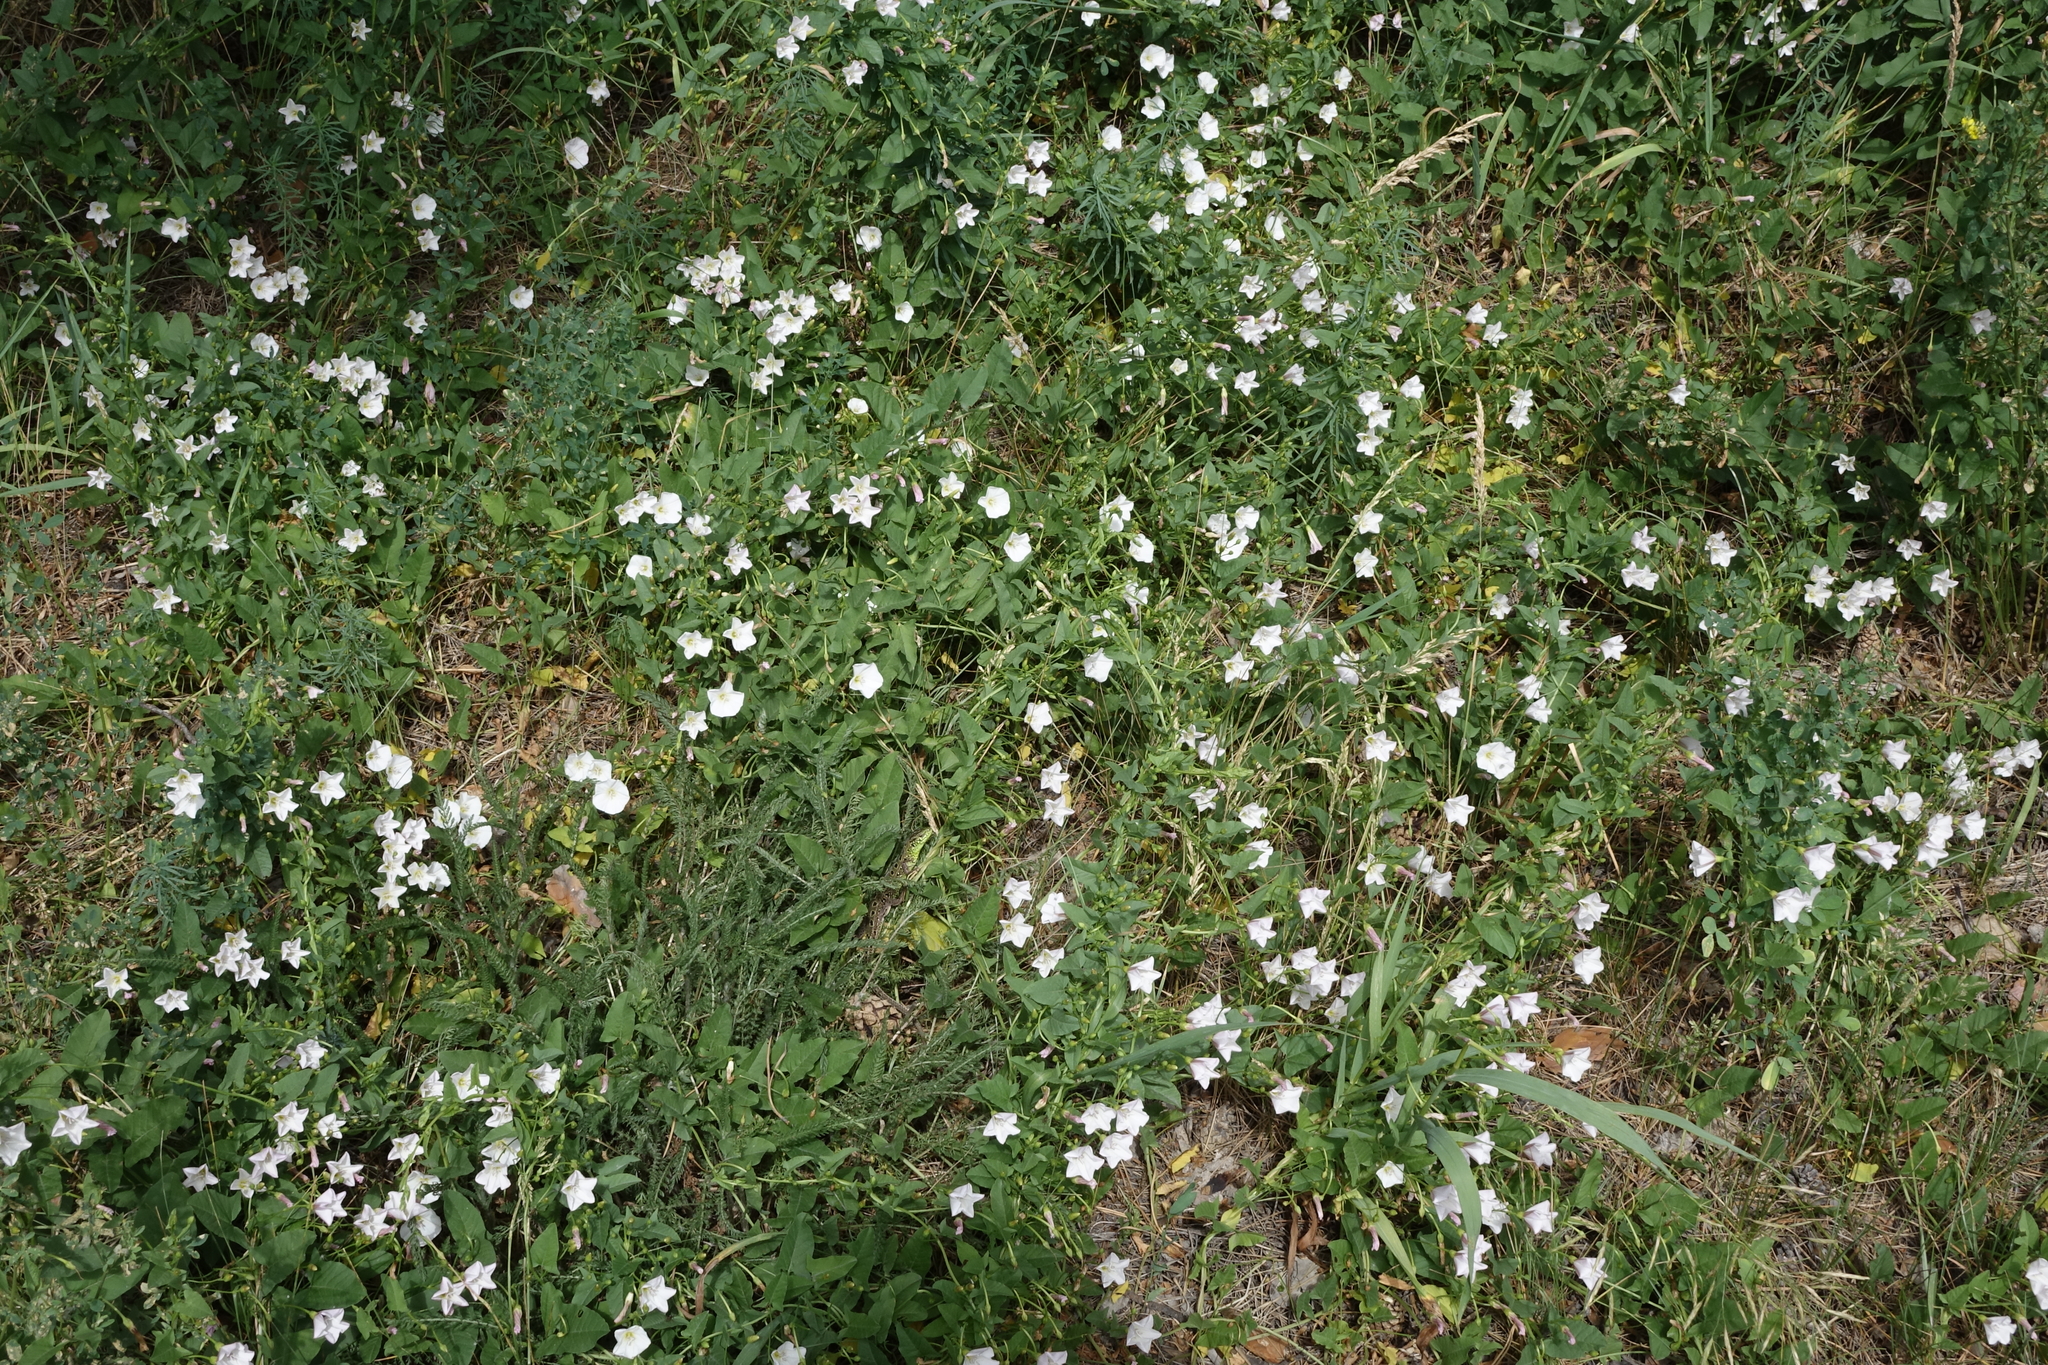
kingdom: Plantae
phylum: Tracheophyta
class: Magnoliopsida
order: Solanales
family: Convolvulaceae
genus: Convolvulus
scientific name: Convolvulus arvensis
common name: Field bindweed
